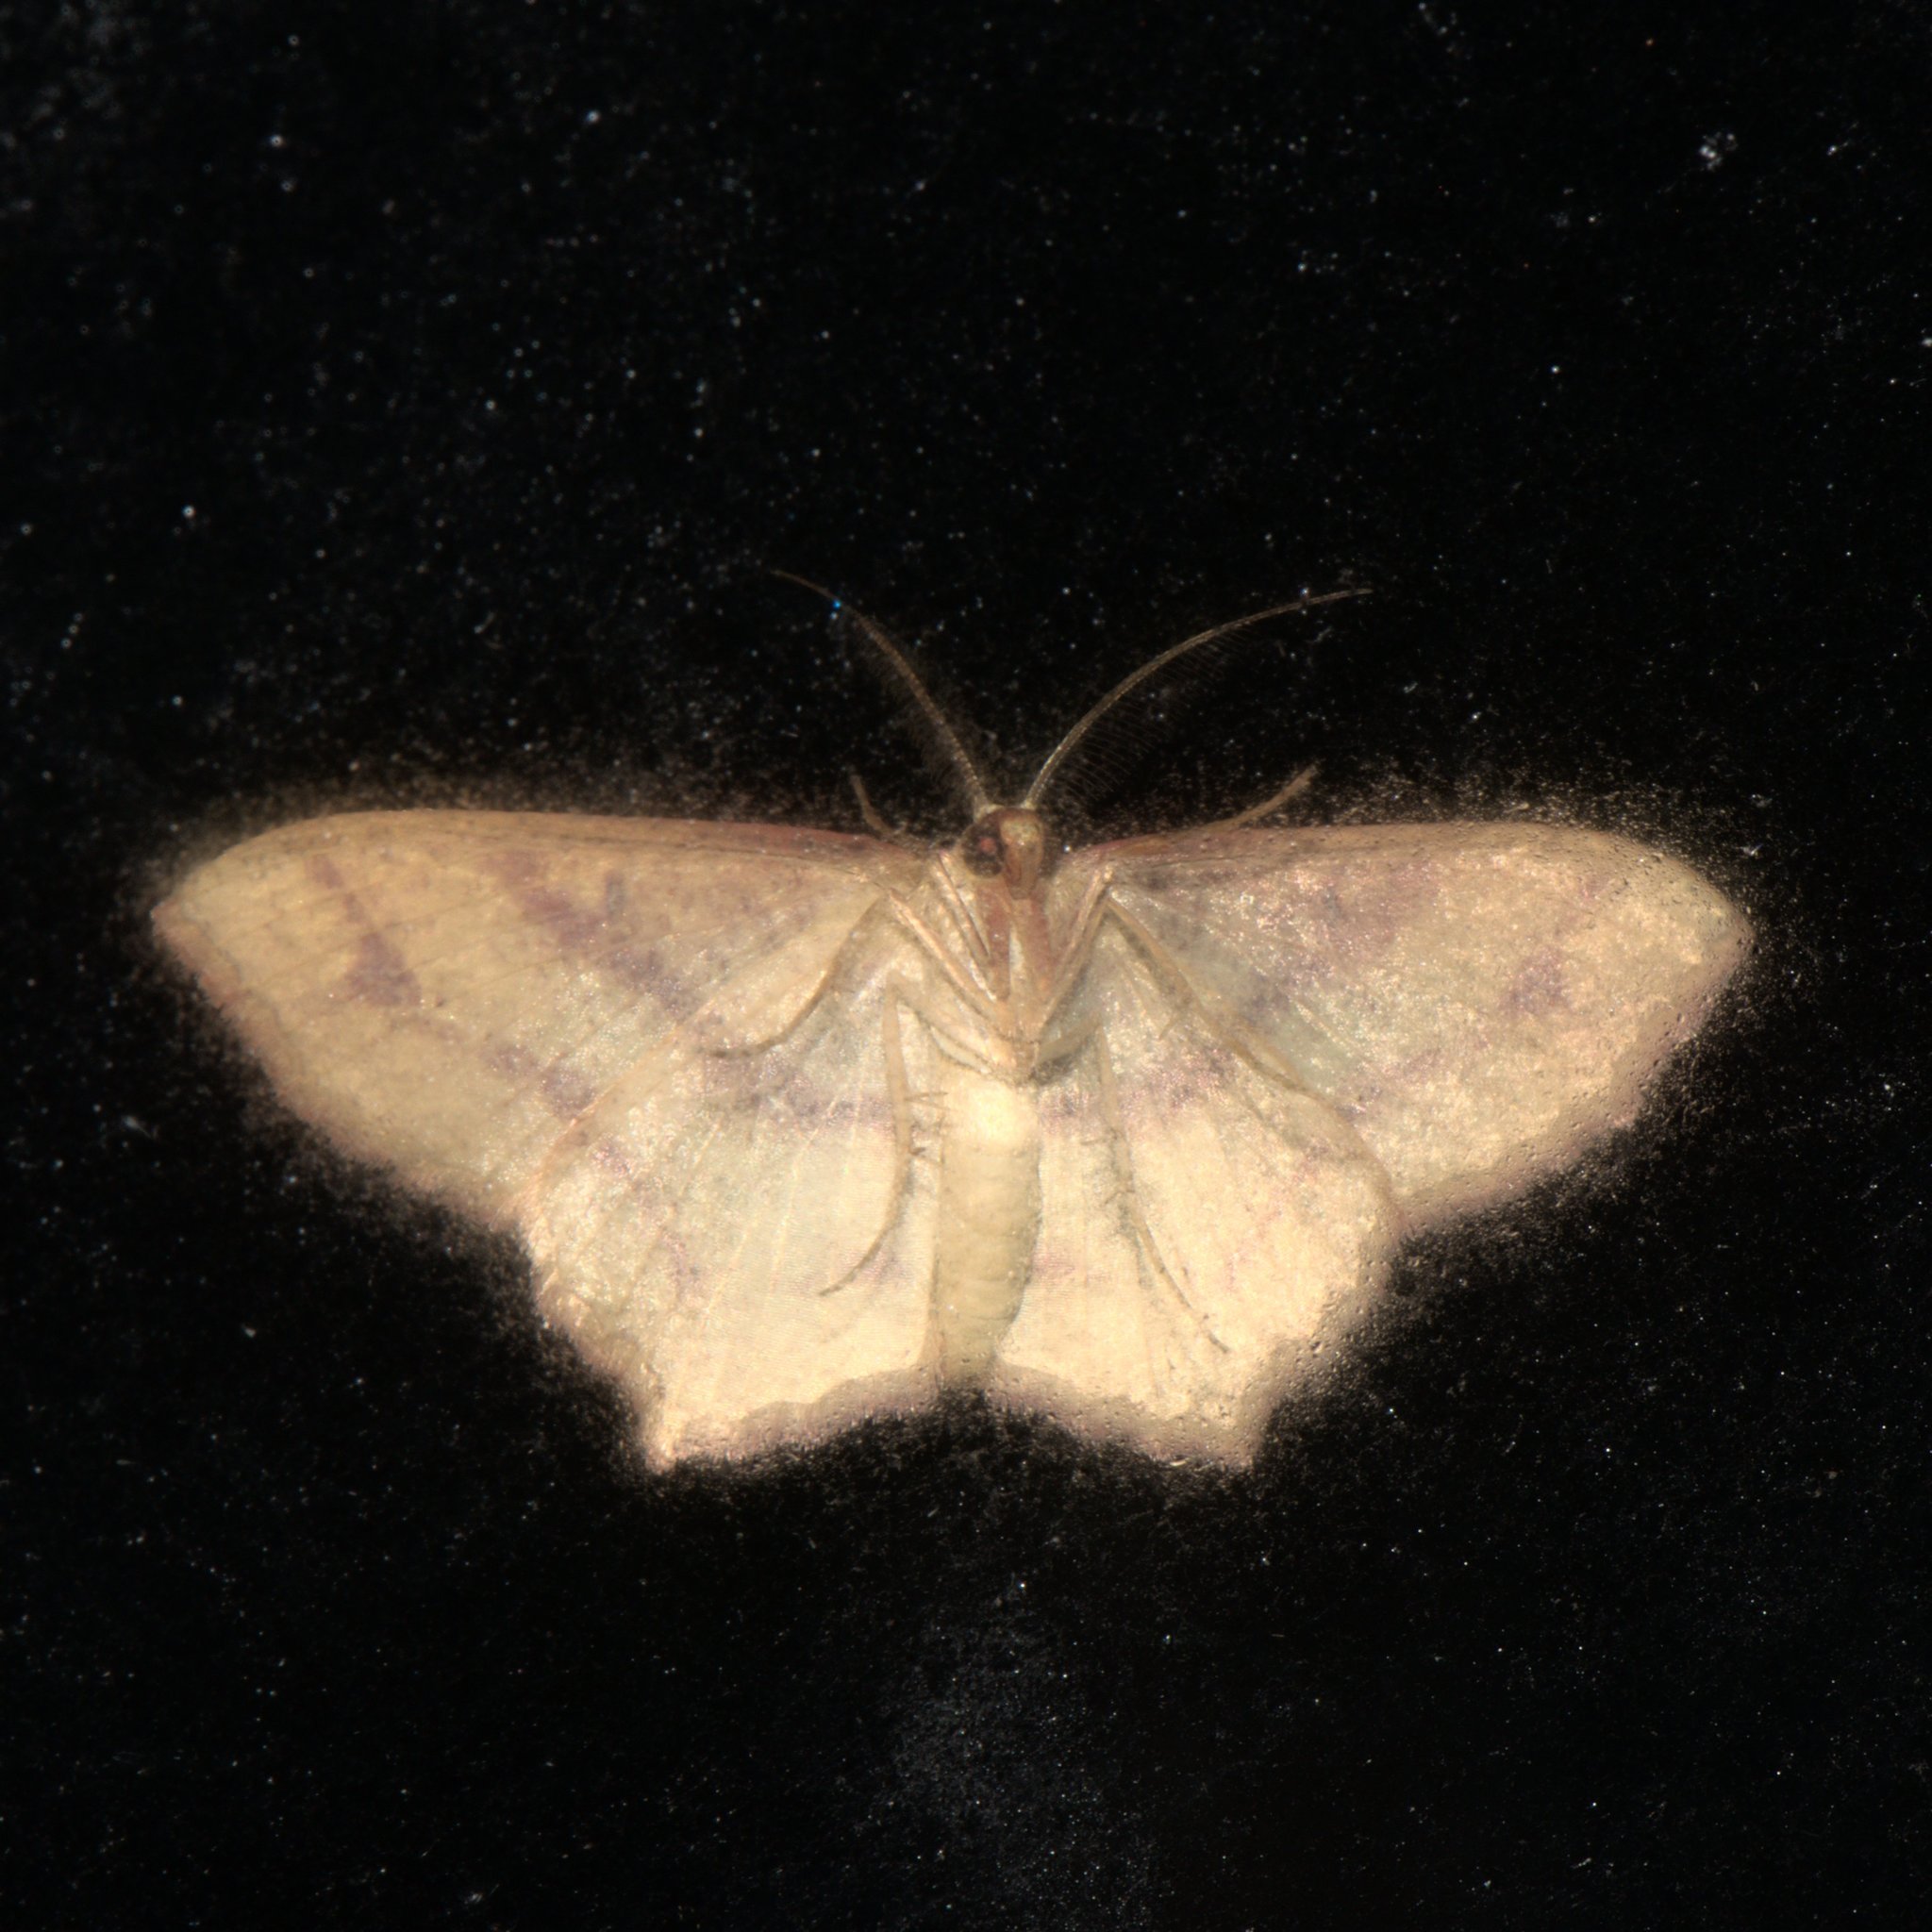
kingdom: Animalia
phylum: Arthropoda
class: Insecta
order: Lepidoptera
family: Geometridae
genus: Synegiodes
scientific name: Synegiodes hyriaria
